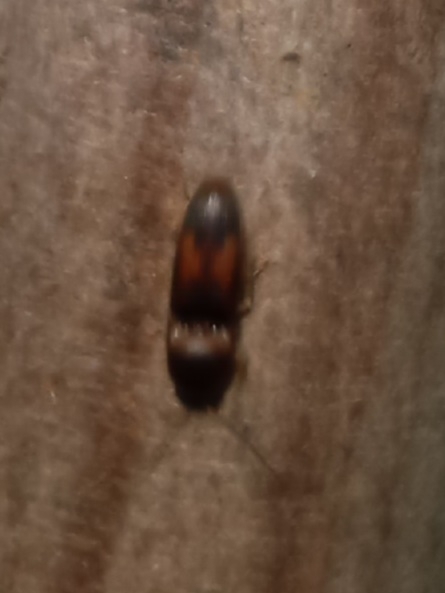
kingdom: Animalia
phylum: Arthropoda
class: Insecta
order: Coleoptera
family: Elateridae
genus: Monocrepidius
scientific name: Monocrepidius
